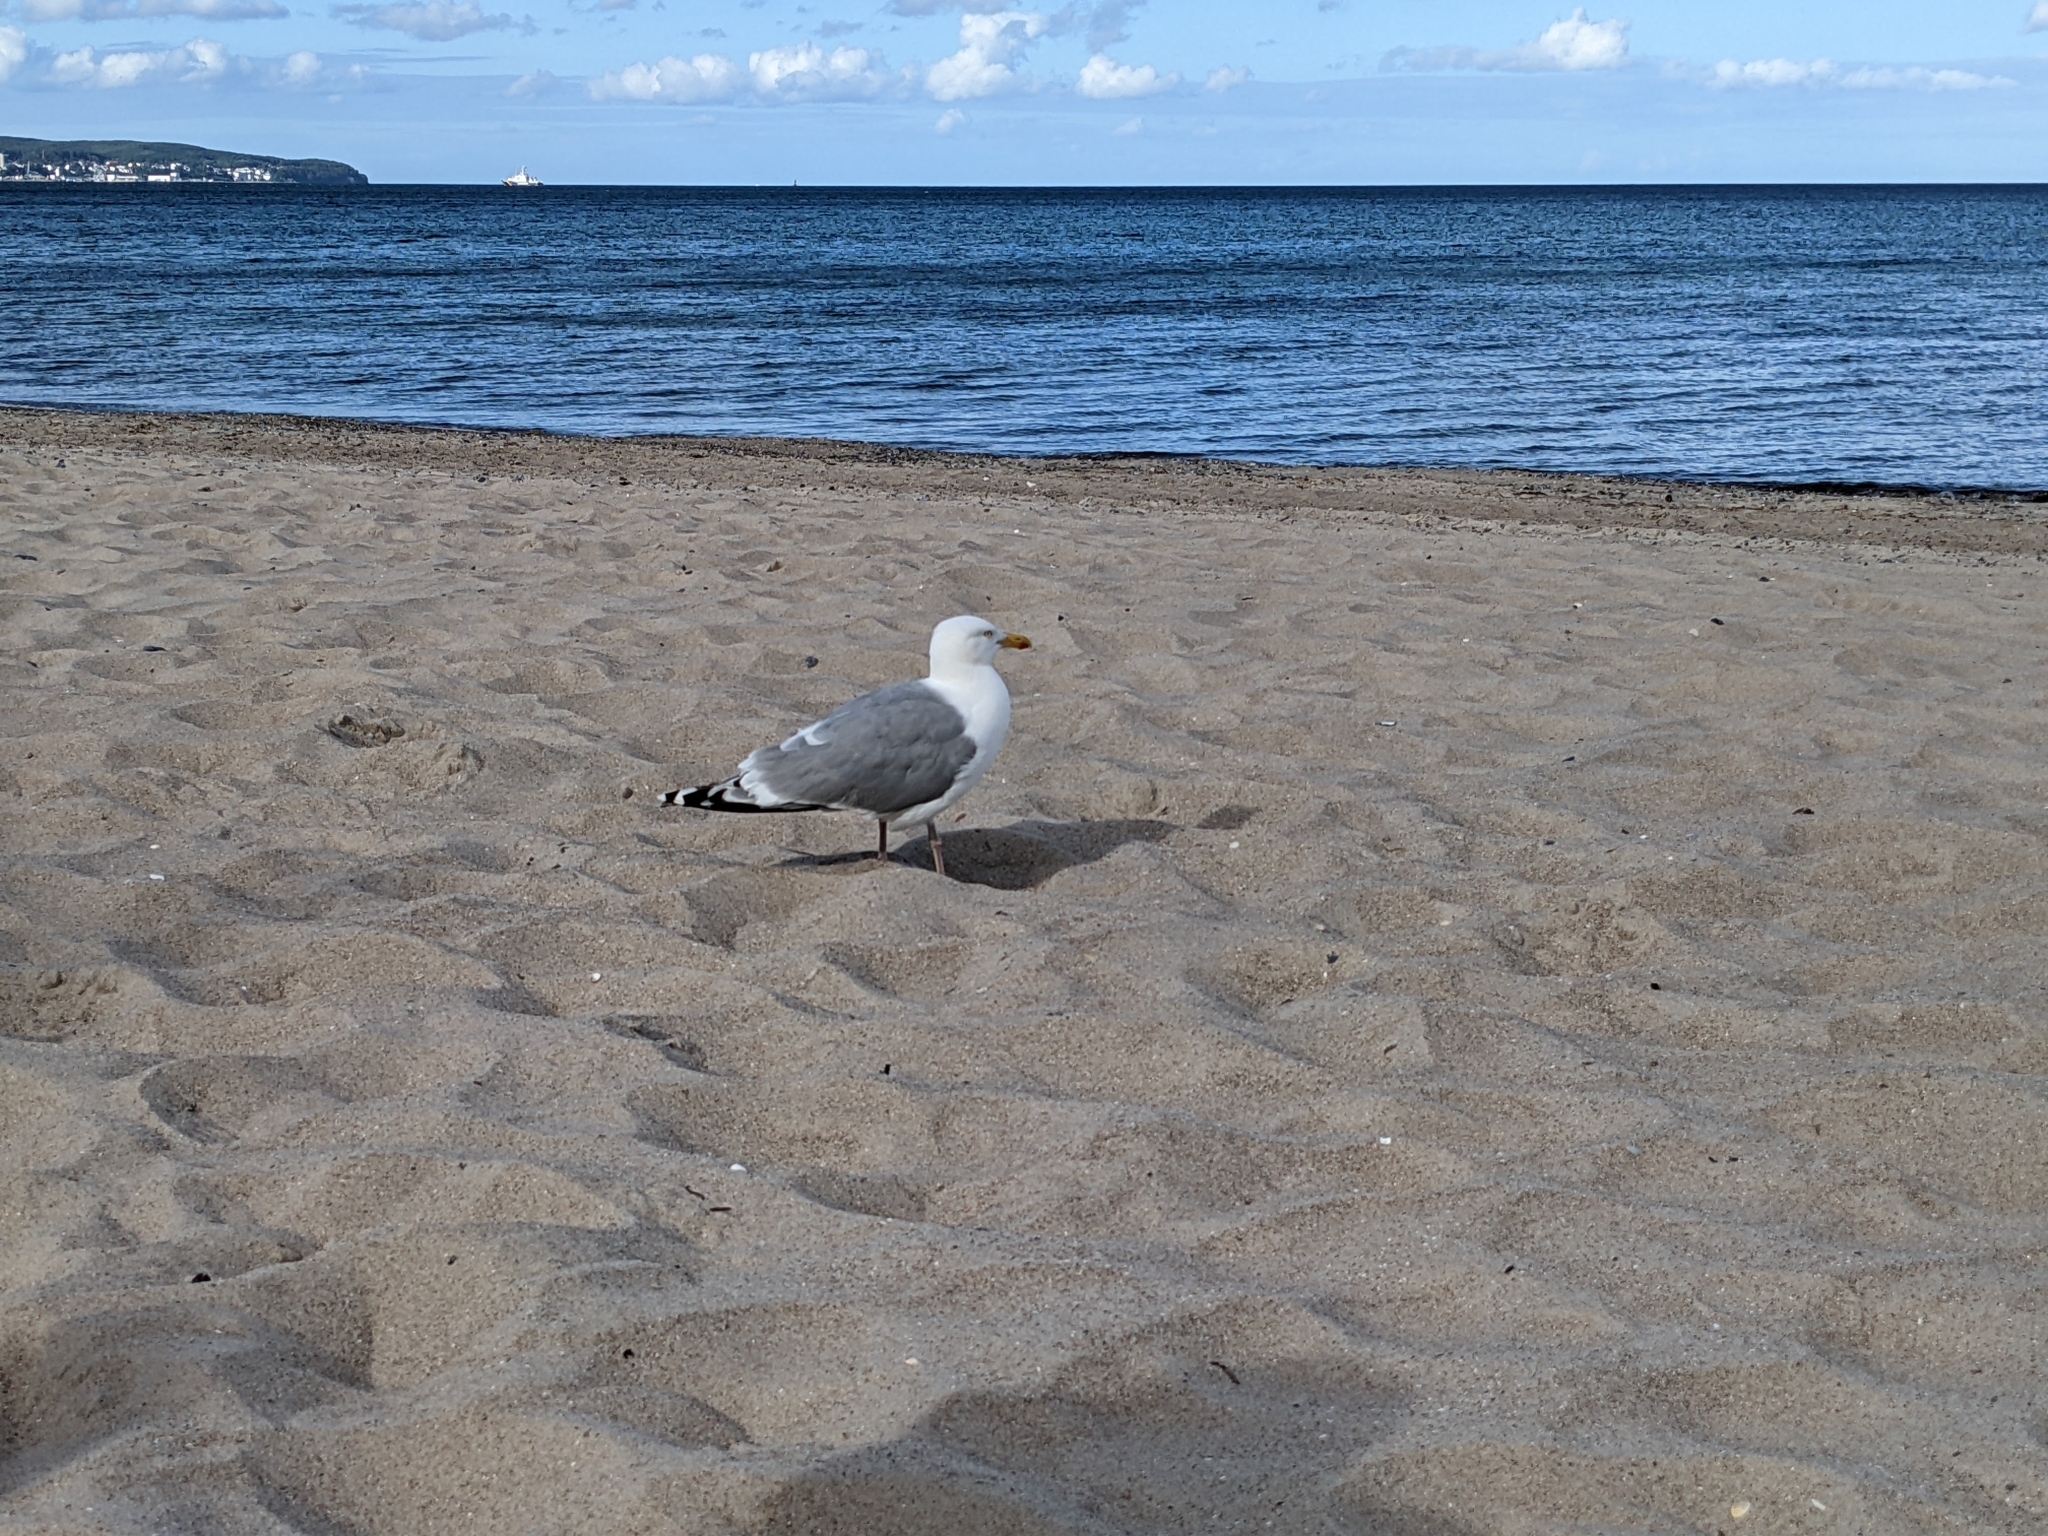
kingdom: Animalia
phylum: Chordata
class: Aves
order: Charadriiformes
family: Laridae
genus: Larus
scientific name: Larus argentatus
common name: Herring gull
